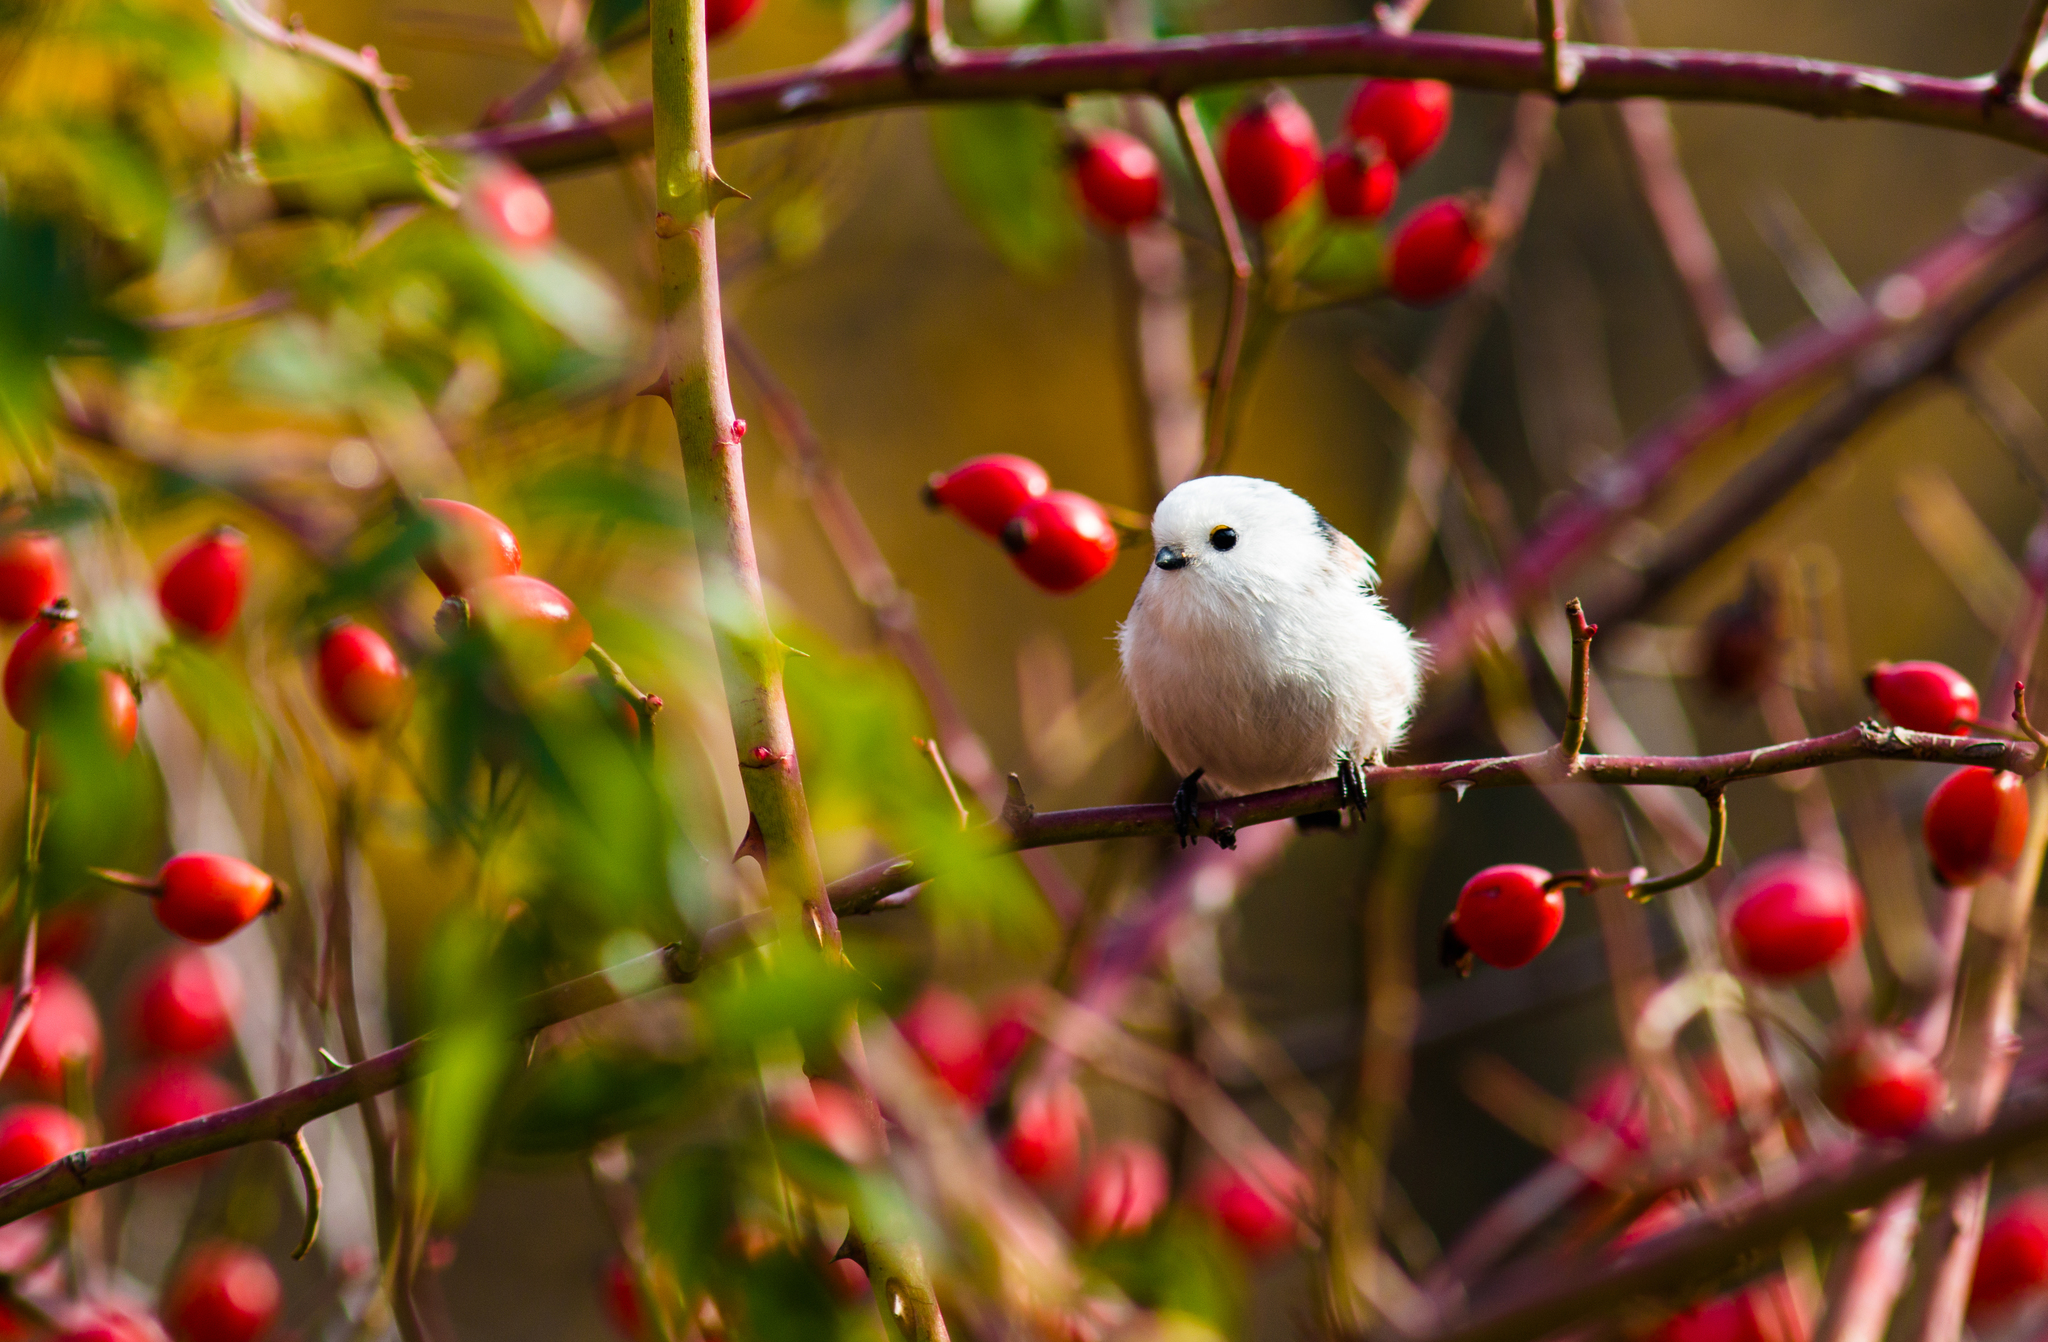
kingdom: Animalia
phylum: Chordata
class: Aves
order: Passeriformes
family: Aegithalidae
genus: Aegithalos
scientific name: Aegithalos caudatus
